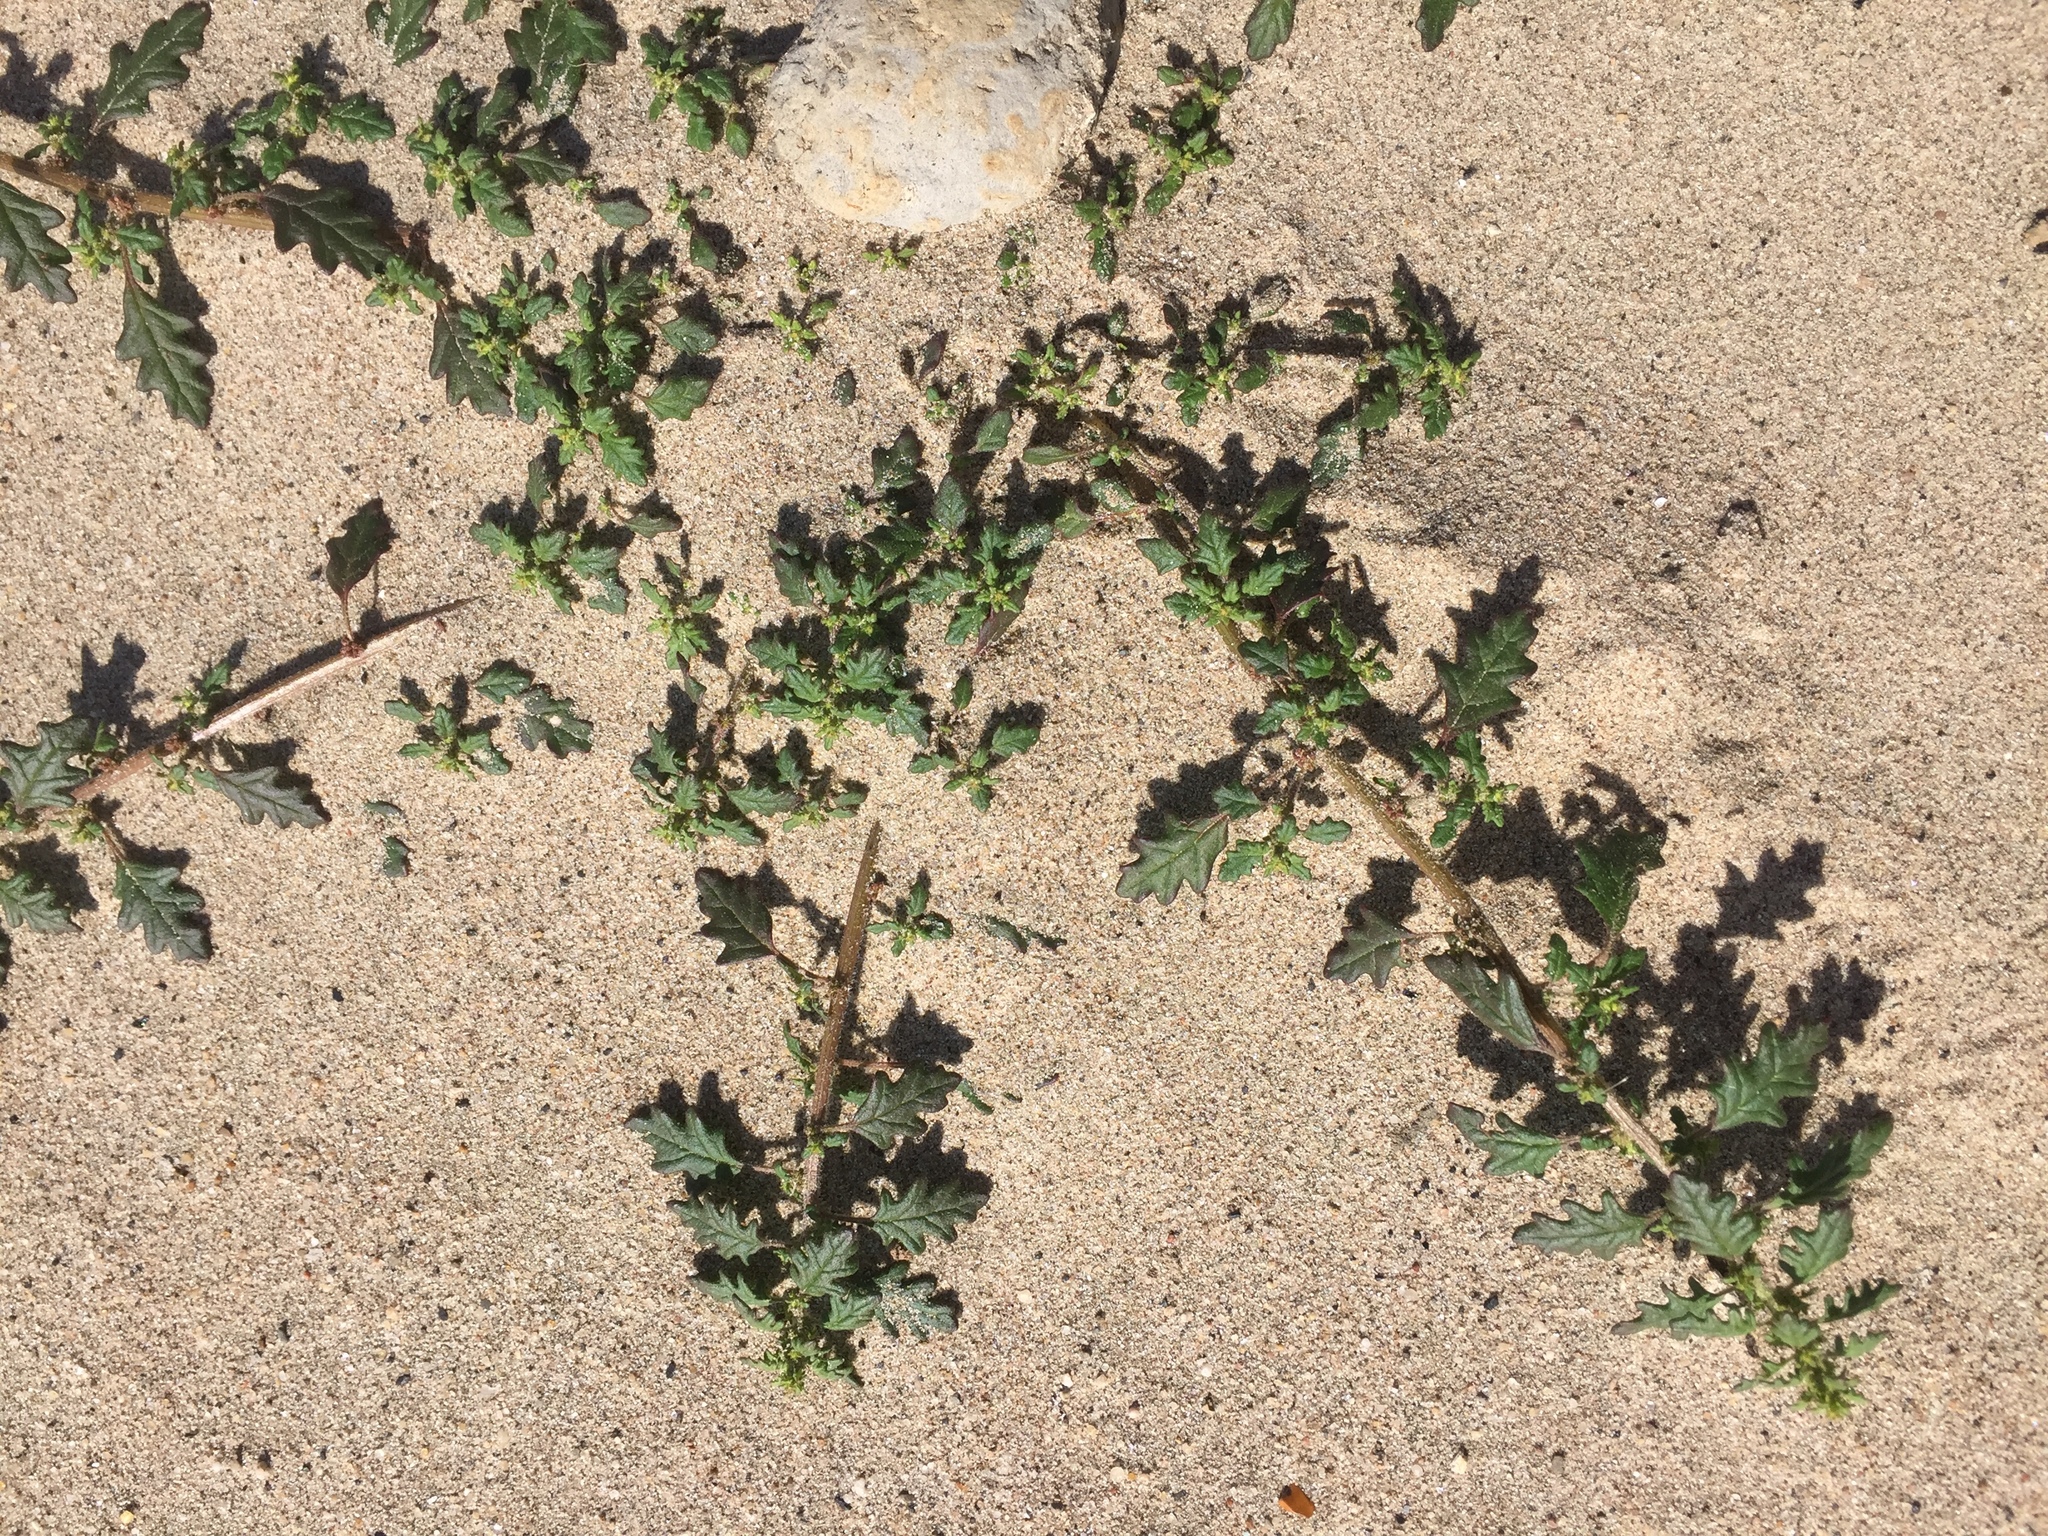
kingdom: Plantae
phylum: Tracheophyta
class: Magnoliopsida
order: Caryophyllales
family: Amaranthaceae
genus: Dysphania
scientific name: Dysphania pumilio
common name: Clammy goosefoot
